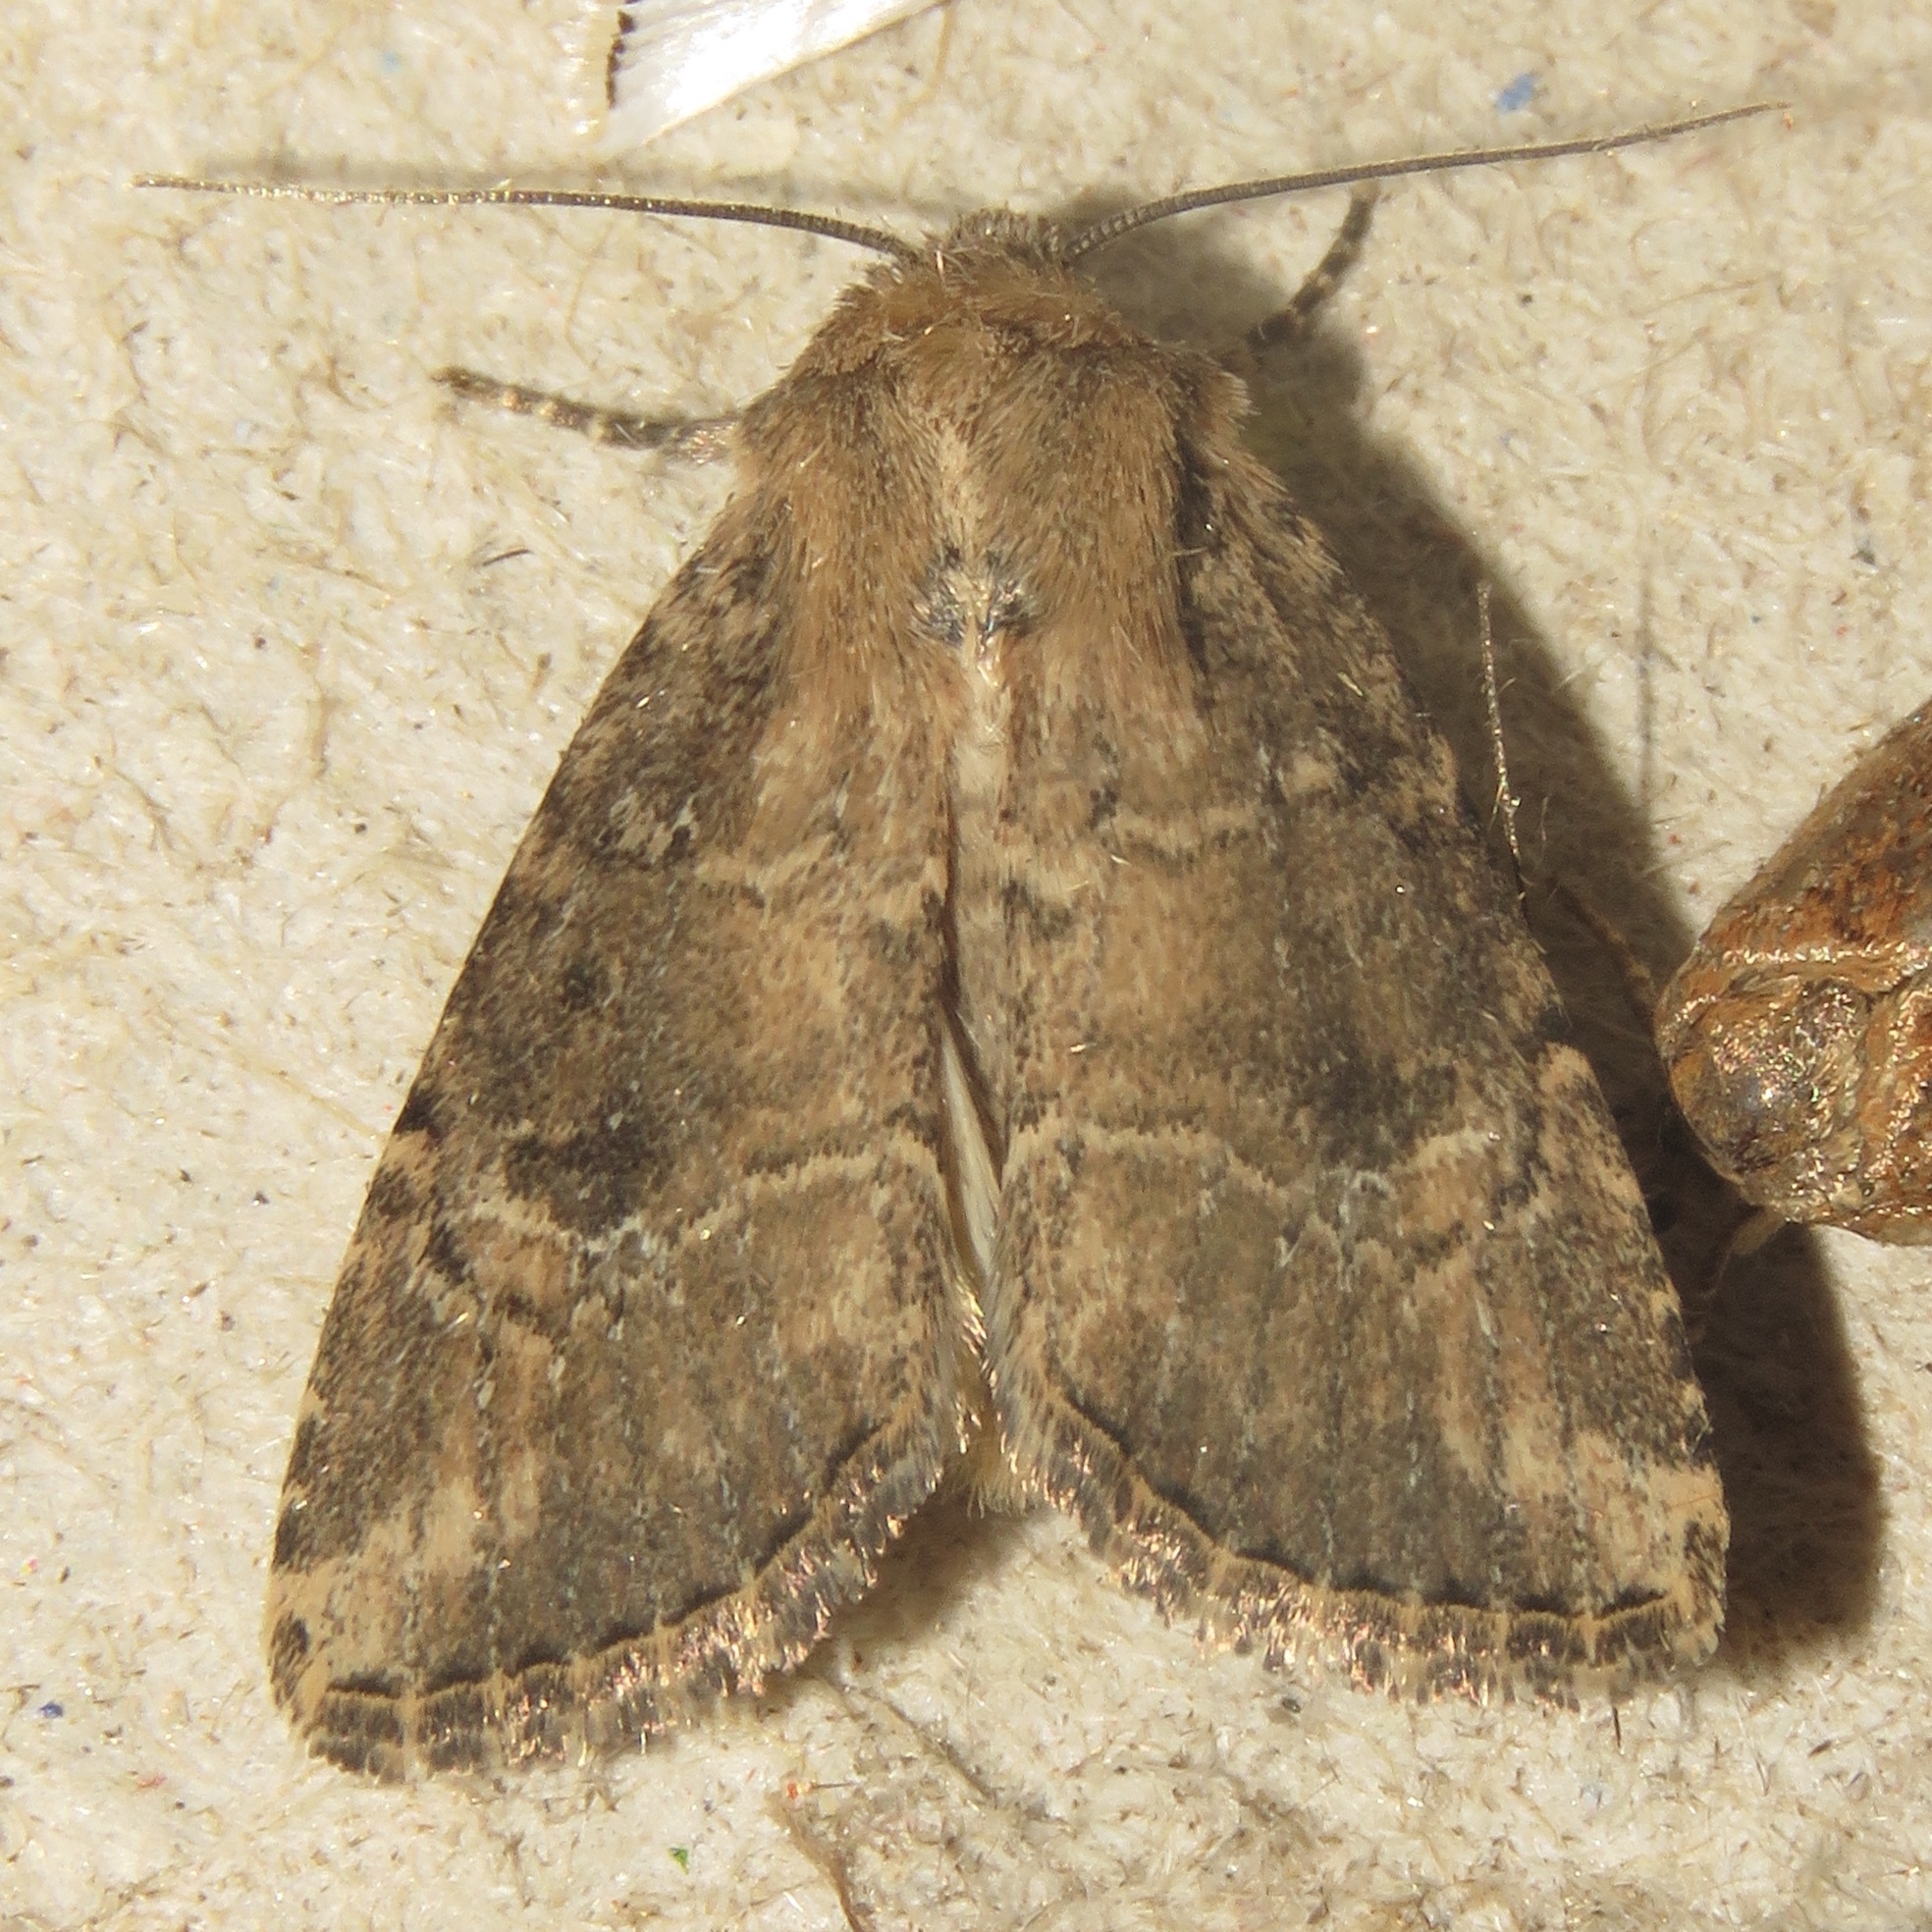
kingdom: Animalia
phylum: Arthropoda
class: Insecta
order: Lepidoptera
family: Noctuidae
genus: Anhimella
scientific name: Anhimella contrahens
